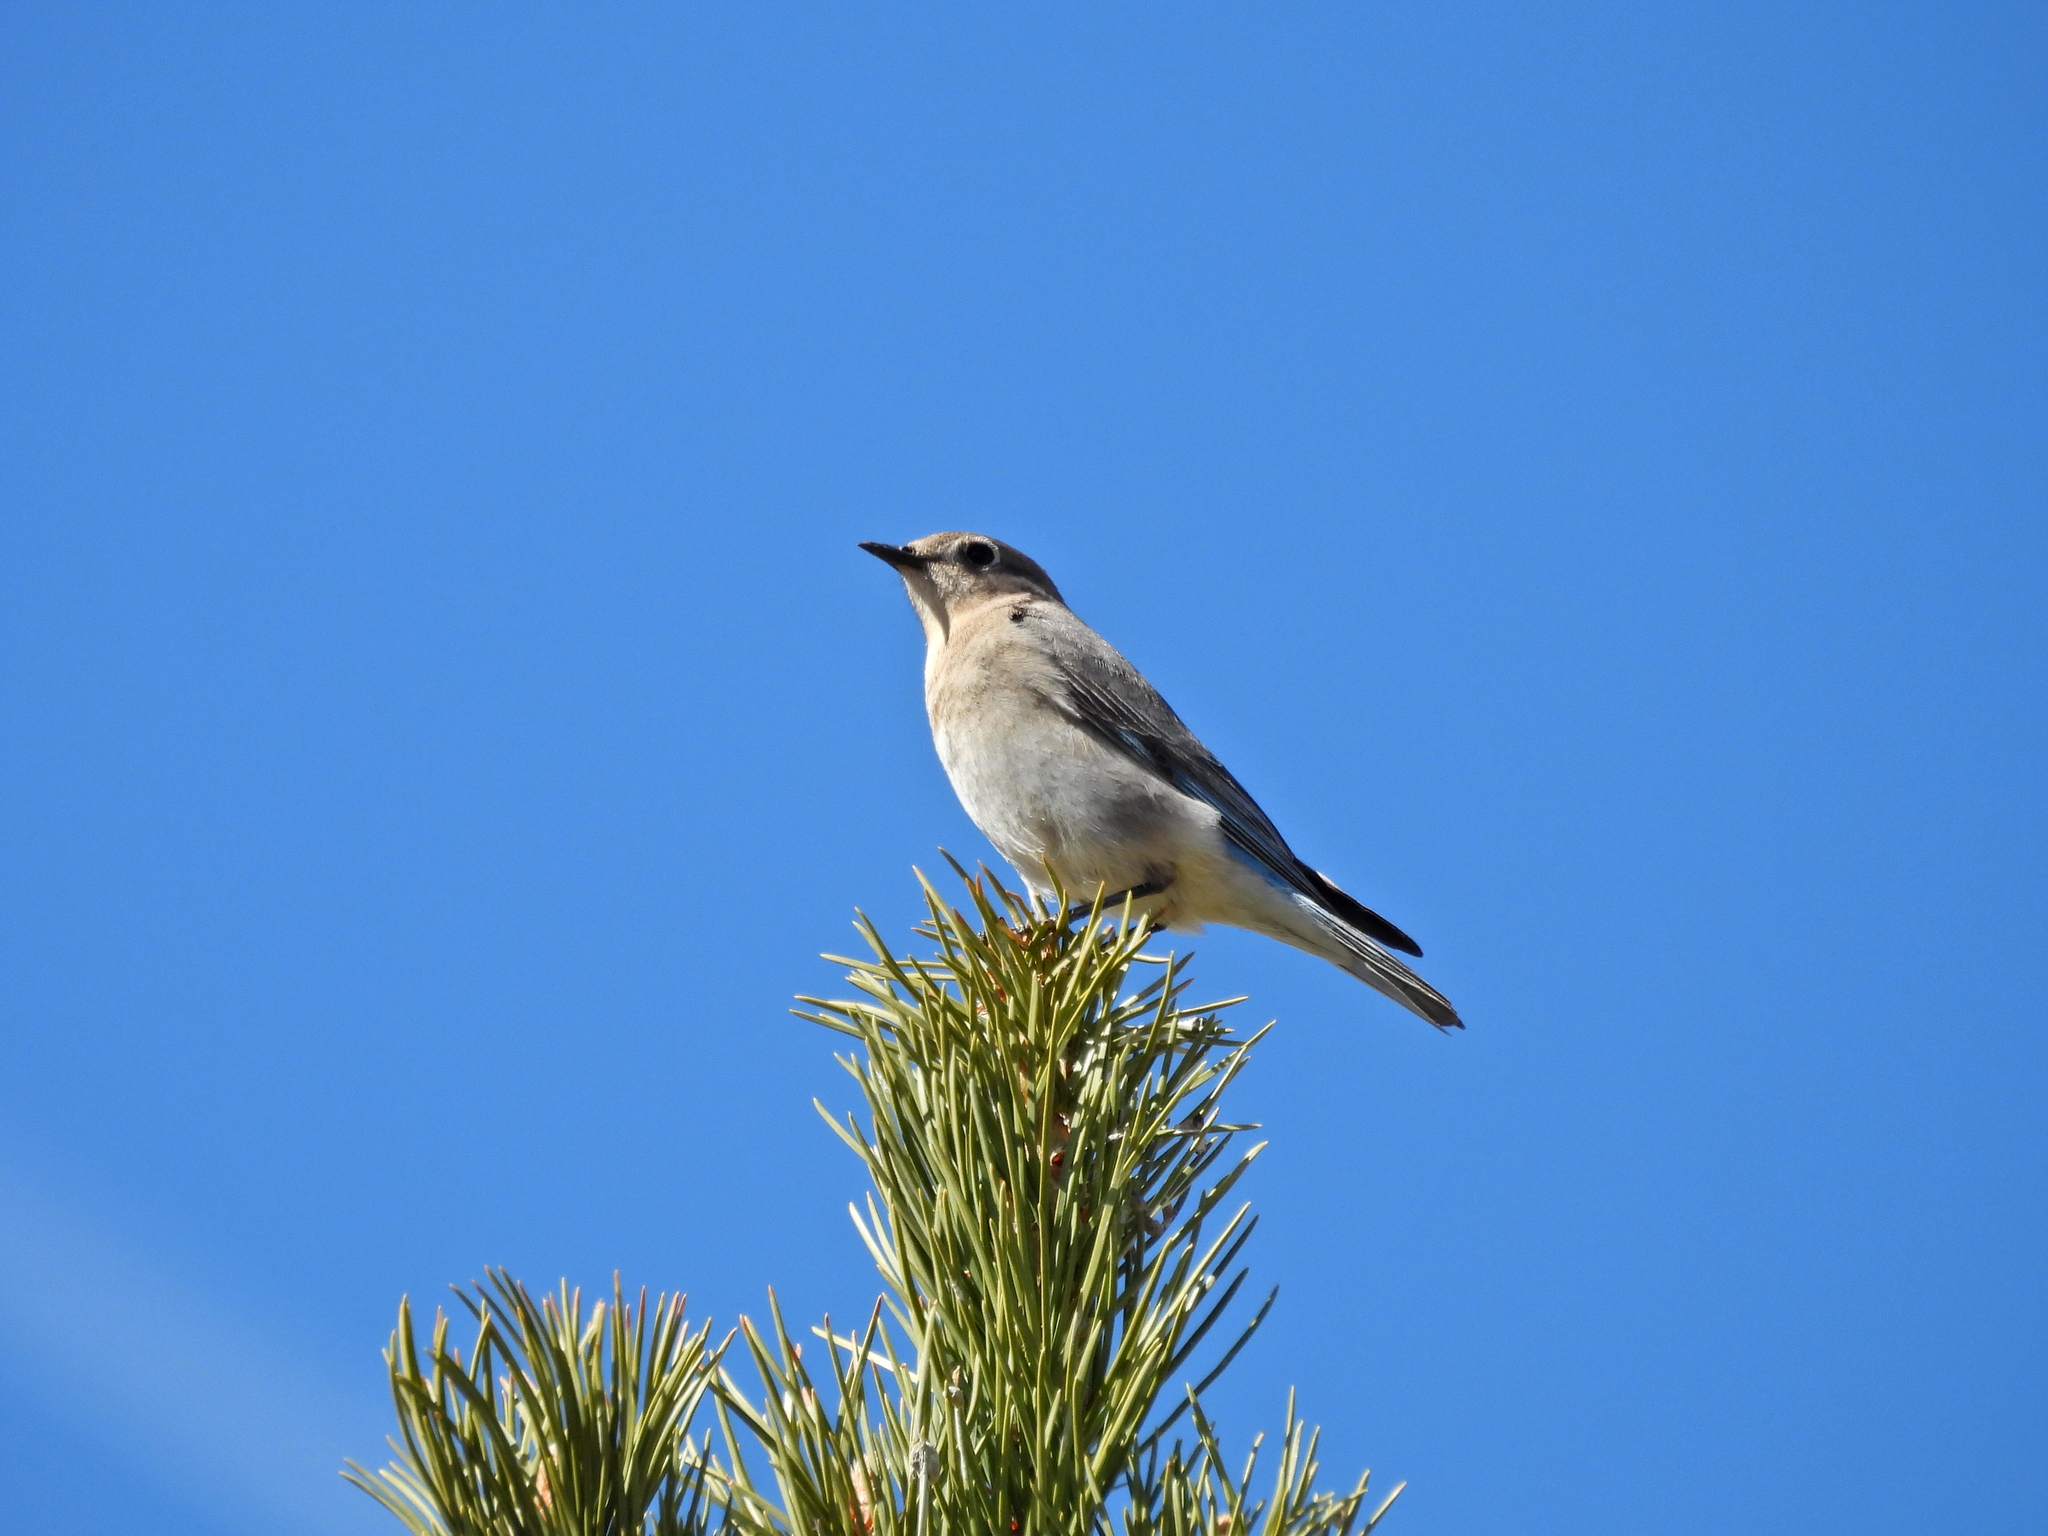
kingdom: Animalia
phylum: Chordata
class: Aves
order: Passeriformes
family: Turdidae
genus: Sialia
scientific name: Sialia currucoides
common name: Mountain bluebird
